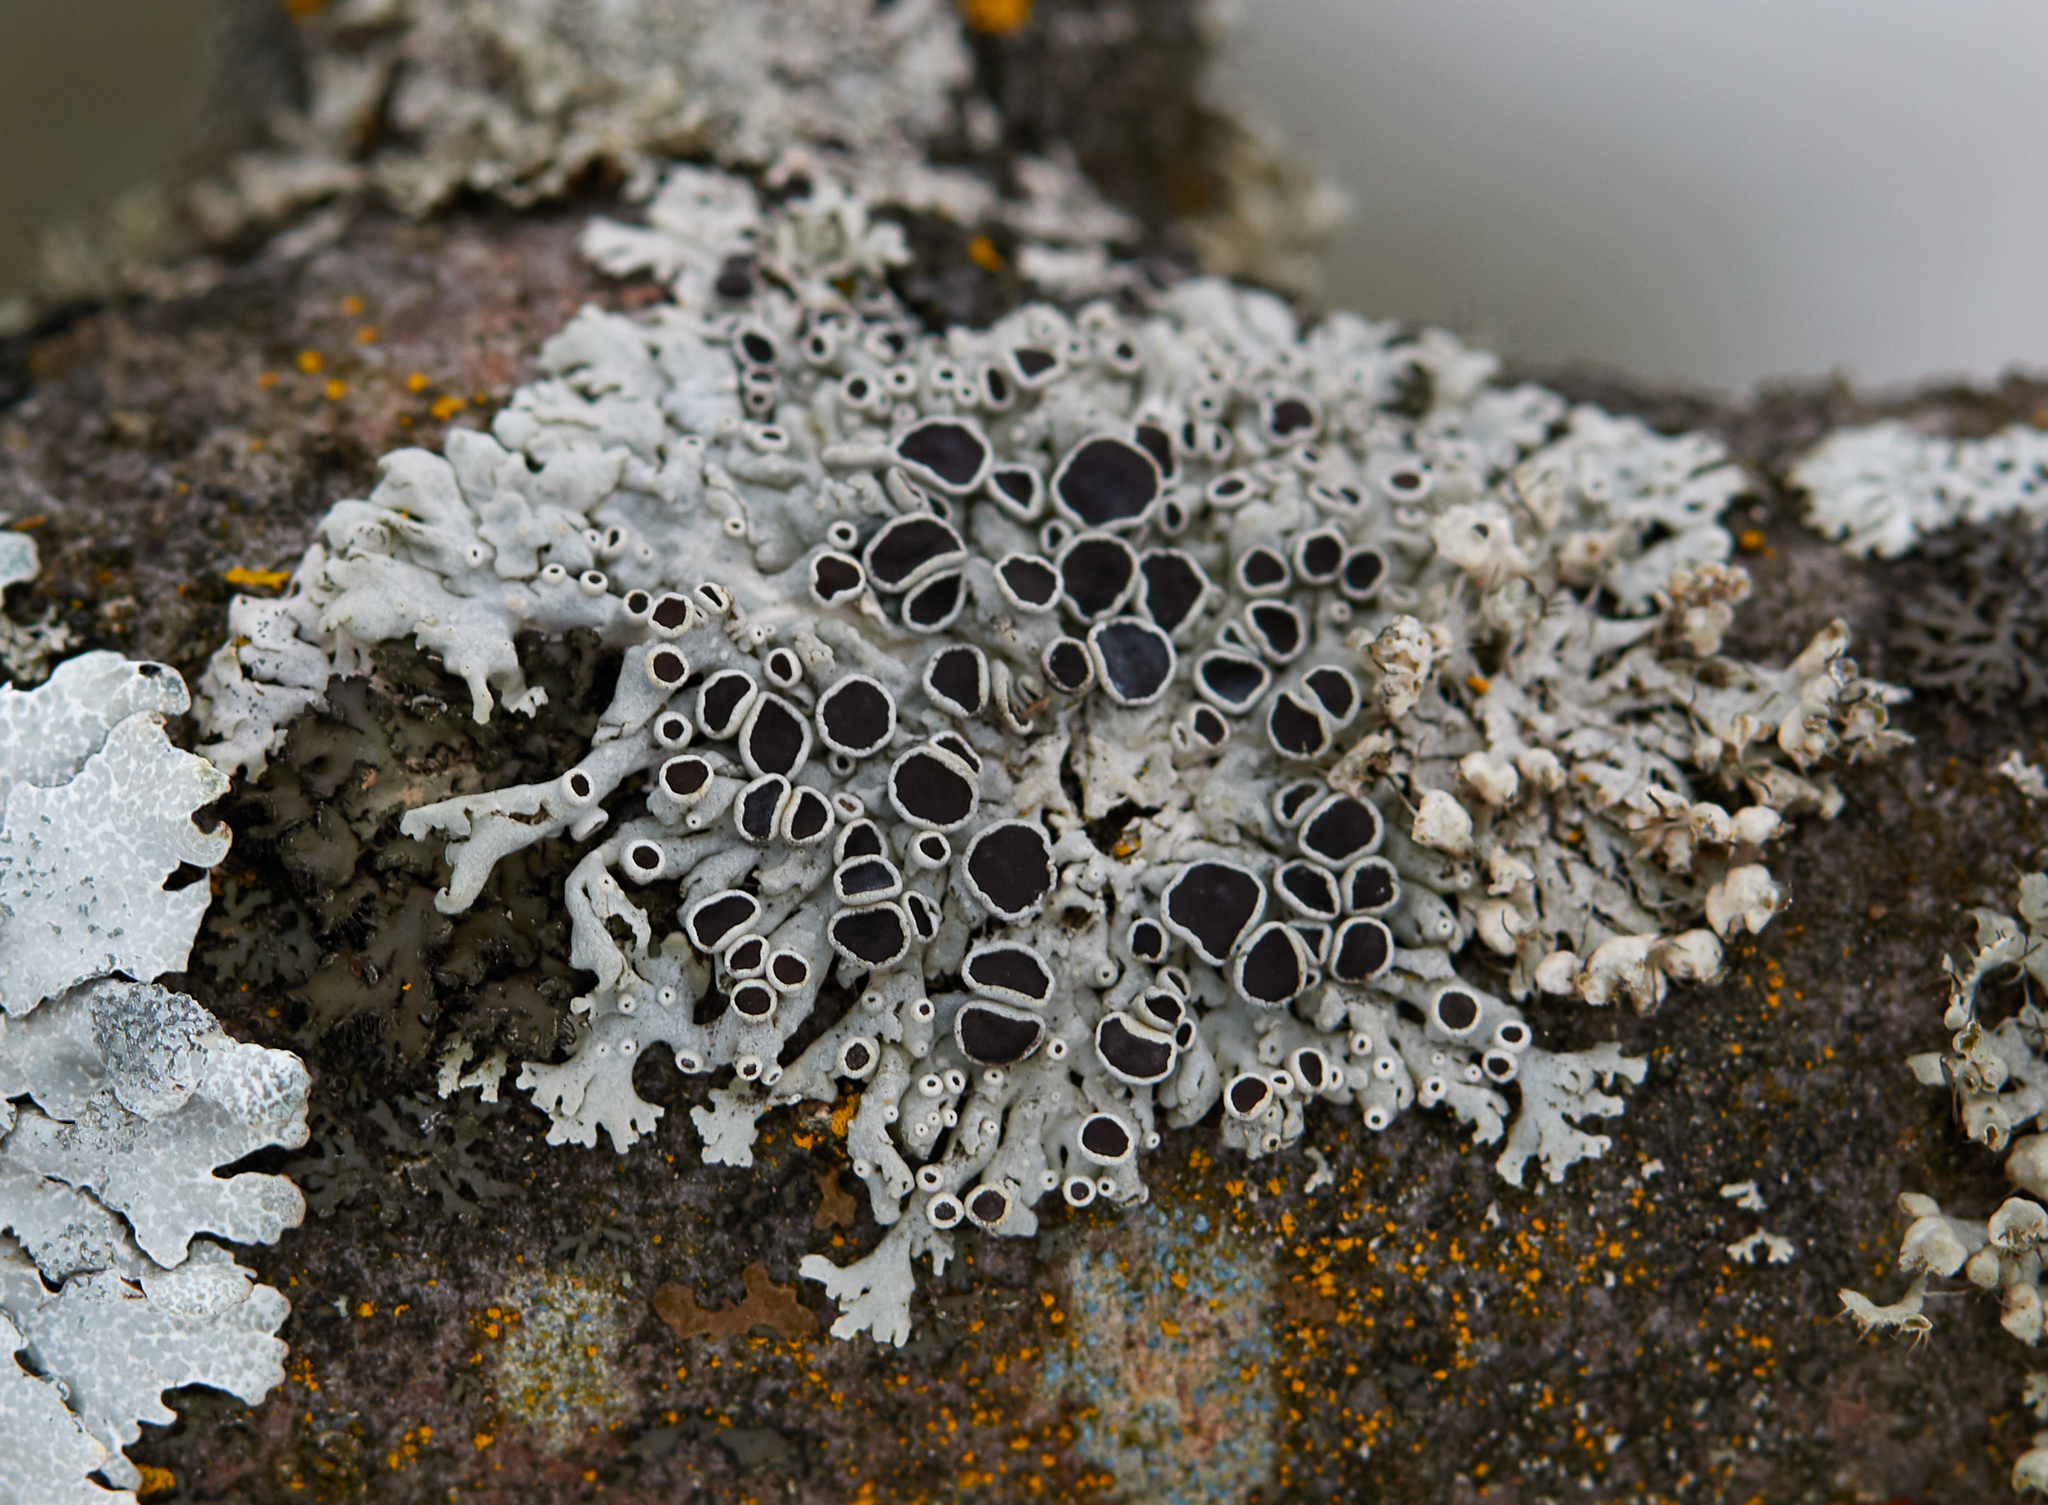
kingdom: Fungi
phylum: Ascomycota
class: Lecanoromycetes
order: Caliciales
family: Physciaceae
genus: Physcia
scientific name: Physcia stellaris
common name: Star rosette lichen
